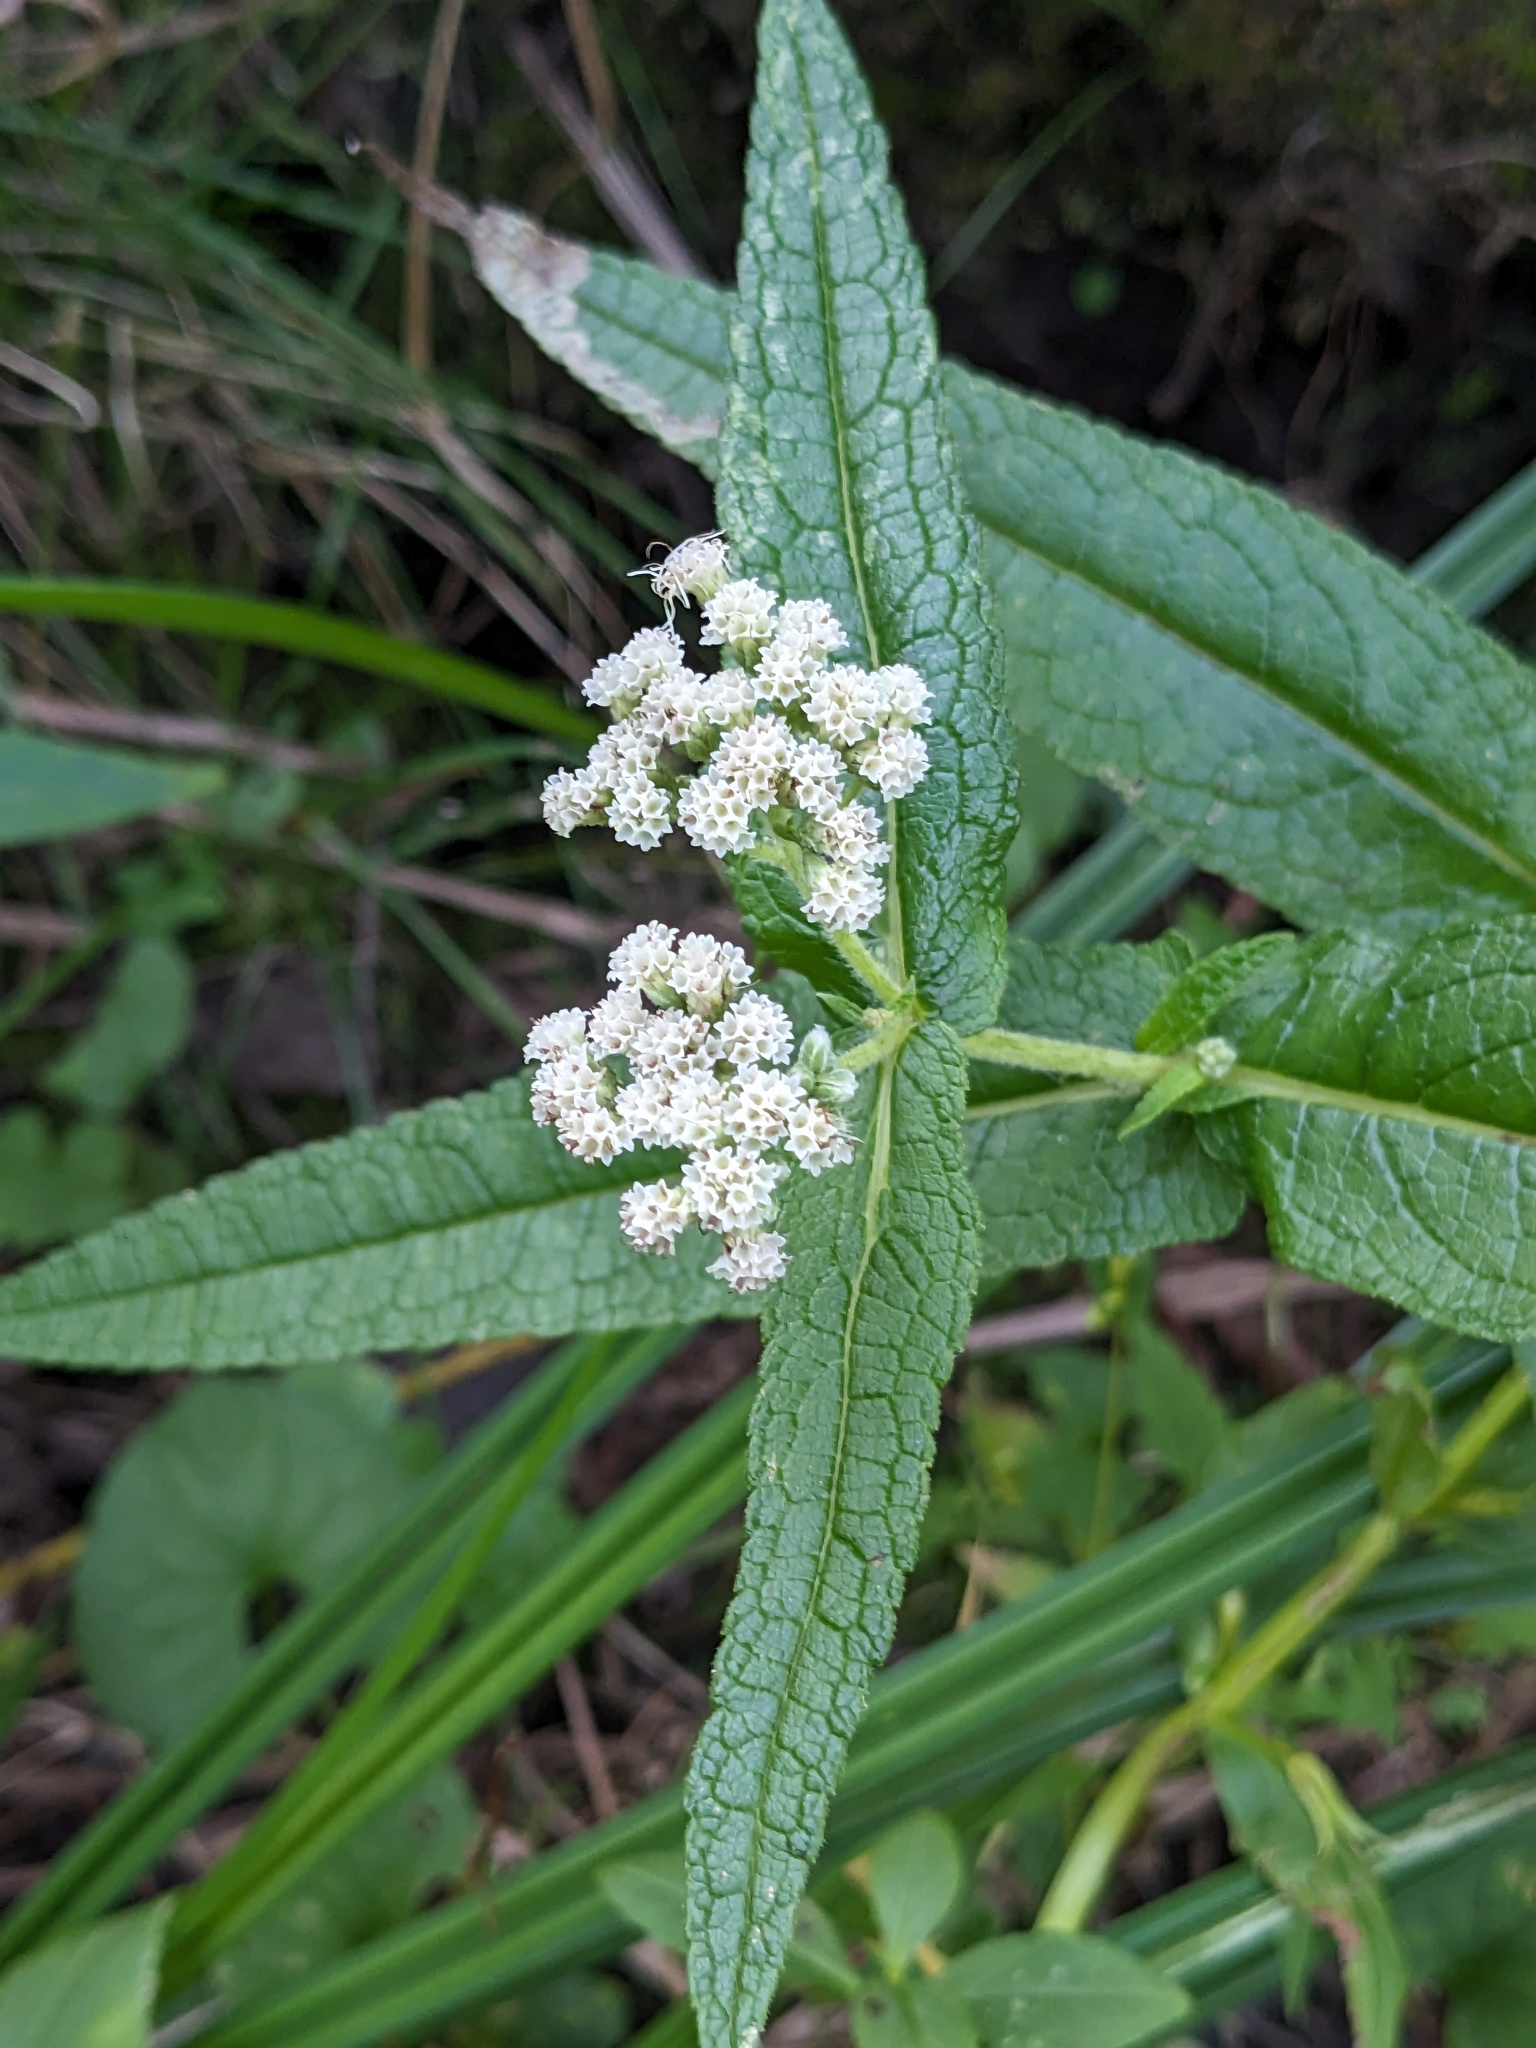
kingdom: Plantae
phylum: Tracheophyta
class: Magnoliopsida
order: Asterales
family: Asteraceae
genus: Eupatorium
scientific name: Eupatorium perfoliatum
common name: Boneset
